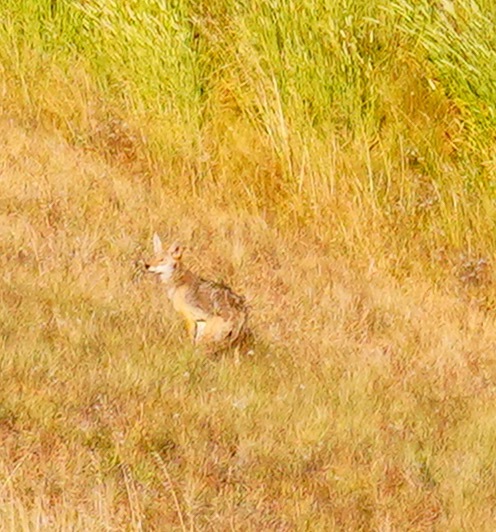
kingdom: Animalia
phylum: Chordata
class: Mammalia
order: Carnivora
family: Canidae
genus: Canis
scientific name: Canis latrans
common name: Coyote
